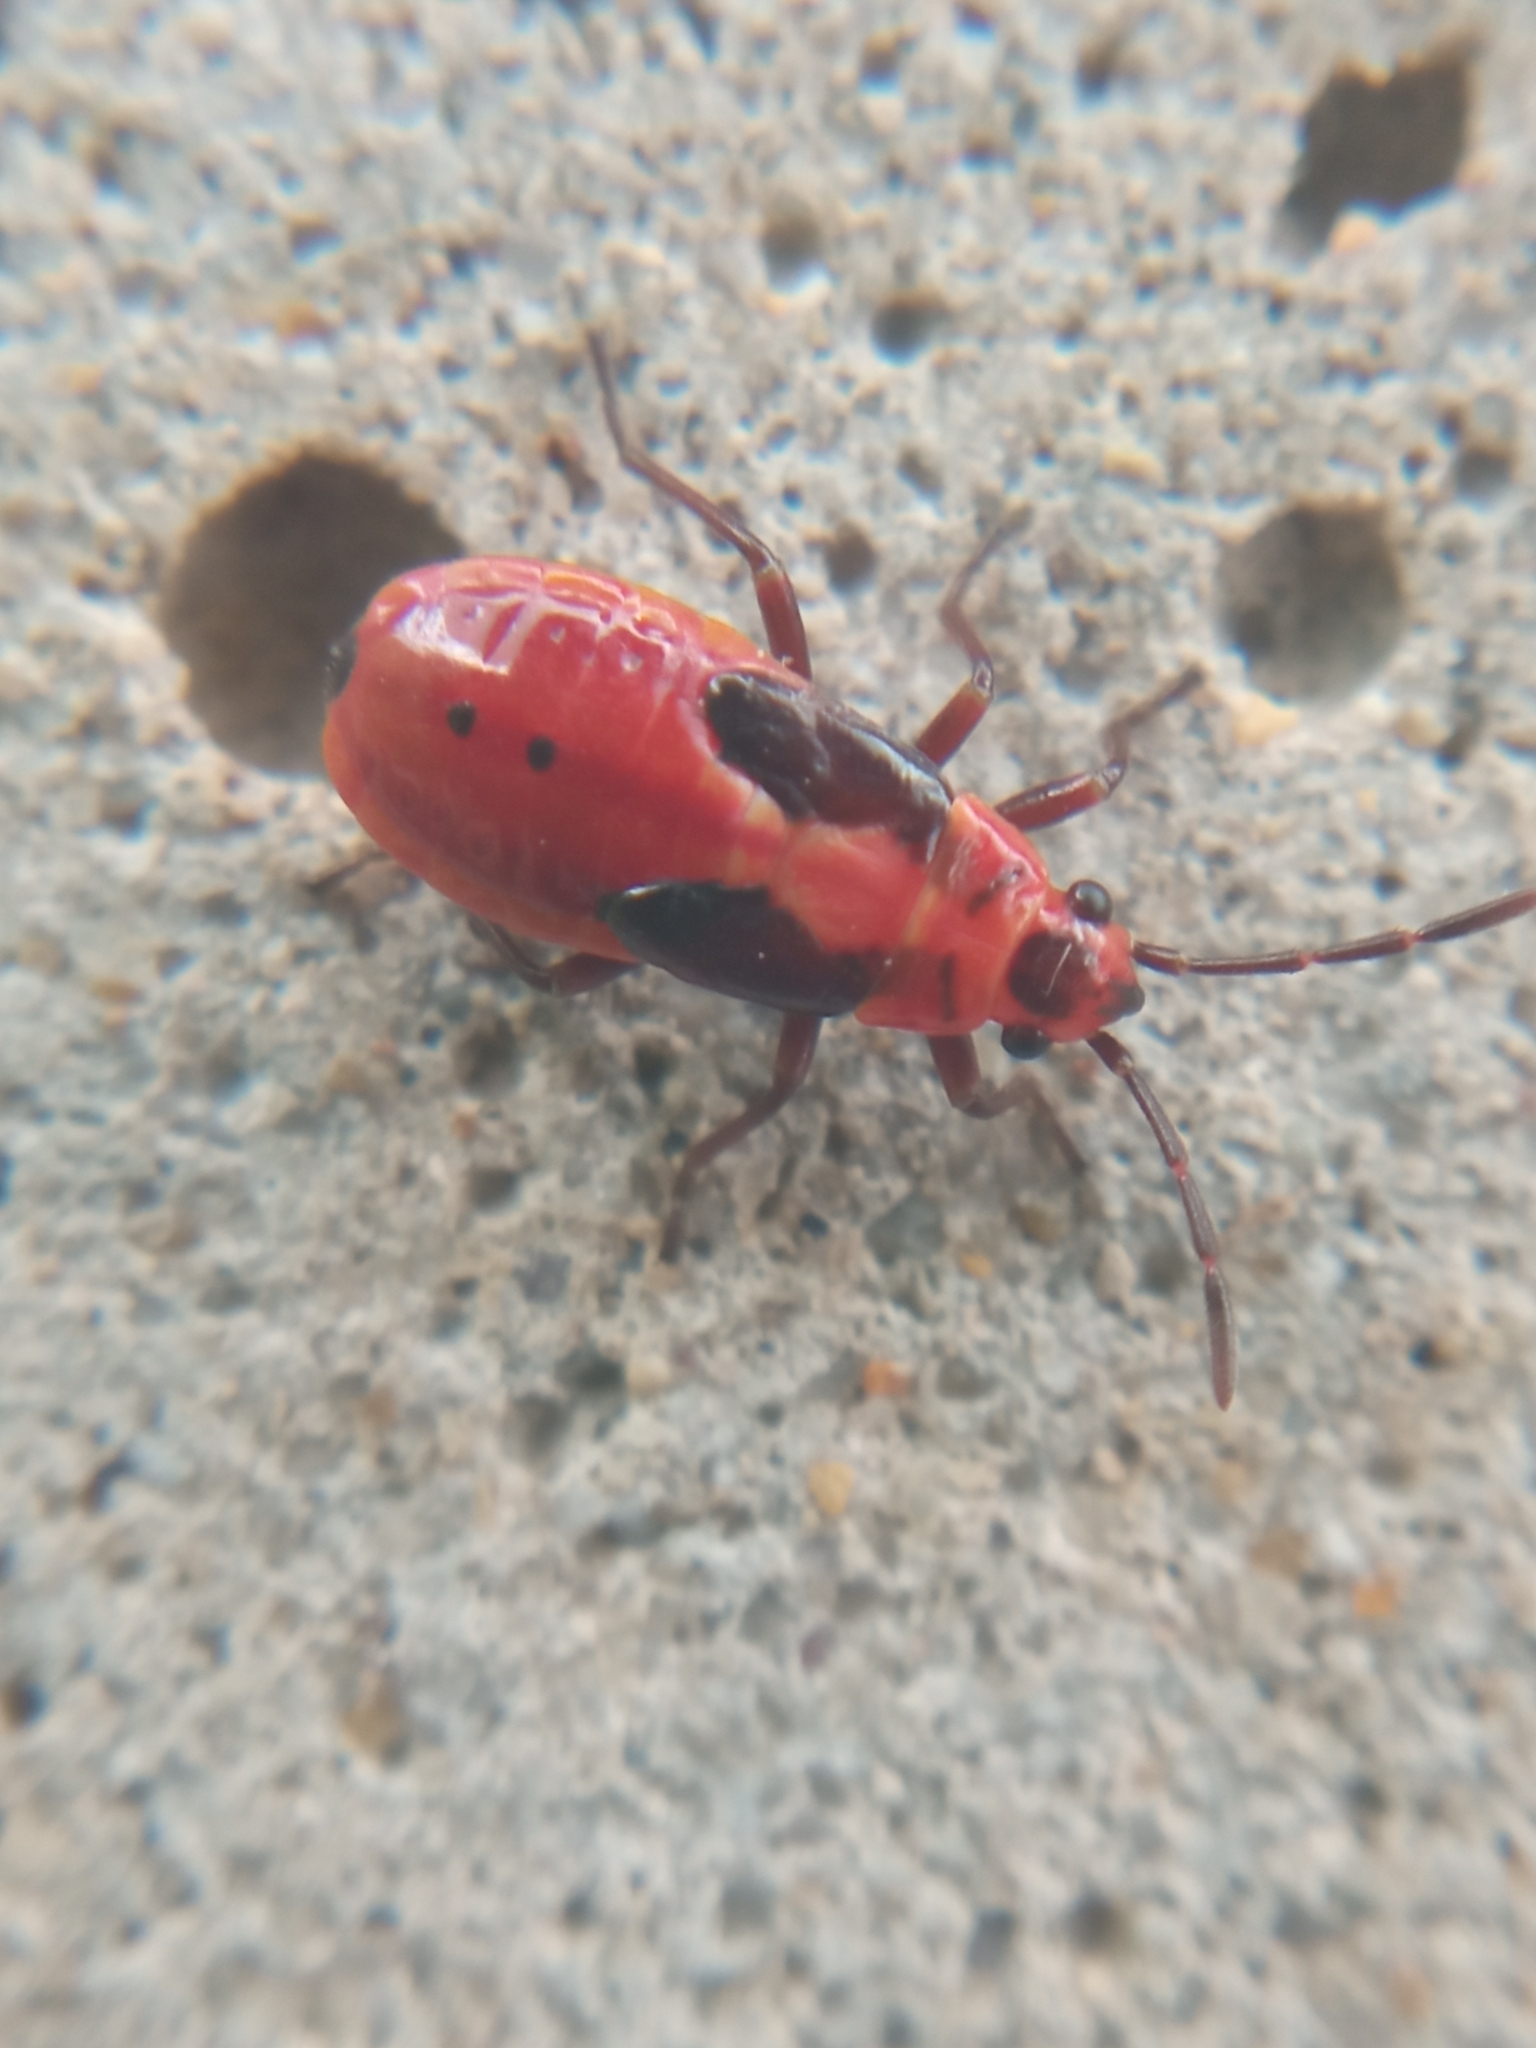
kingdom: Animalia
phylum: Arthropoda
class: Insecta
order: Hemiptera
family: Lygaeidae
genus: Lygaeus
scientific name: Lygaeus equestris
